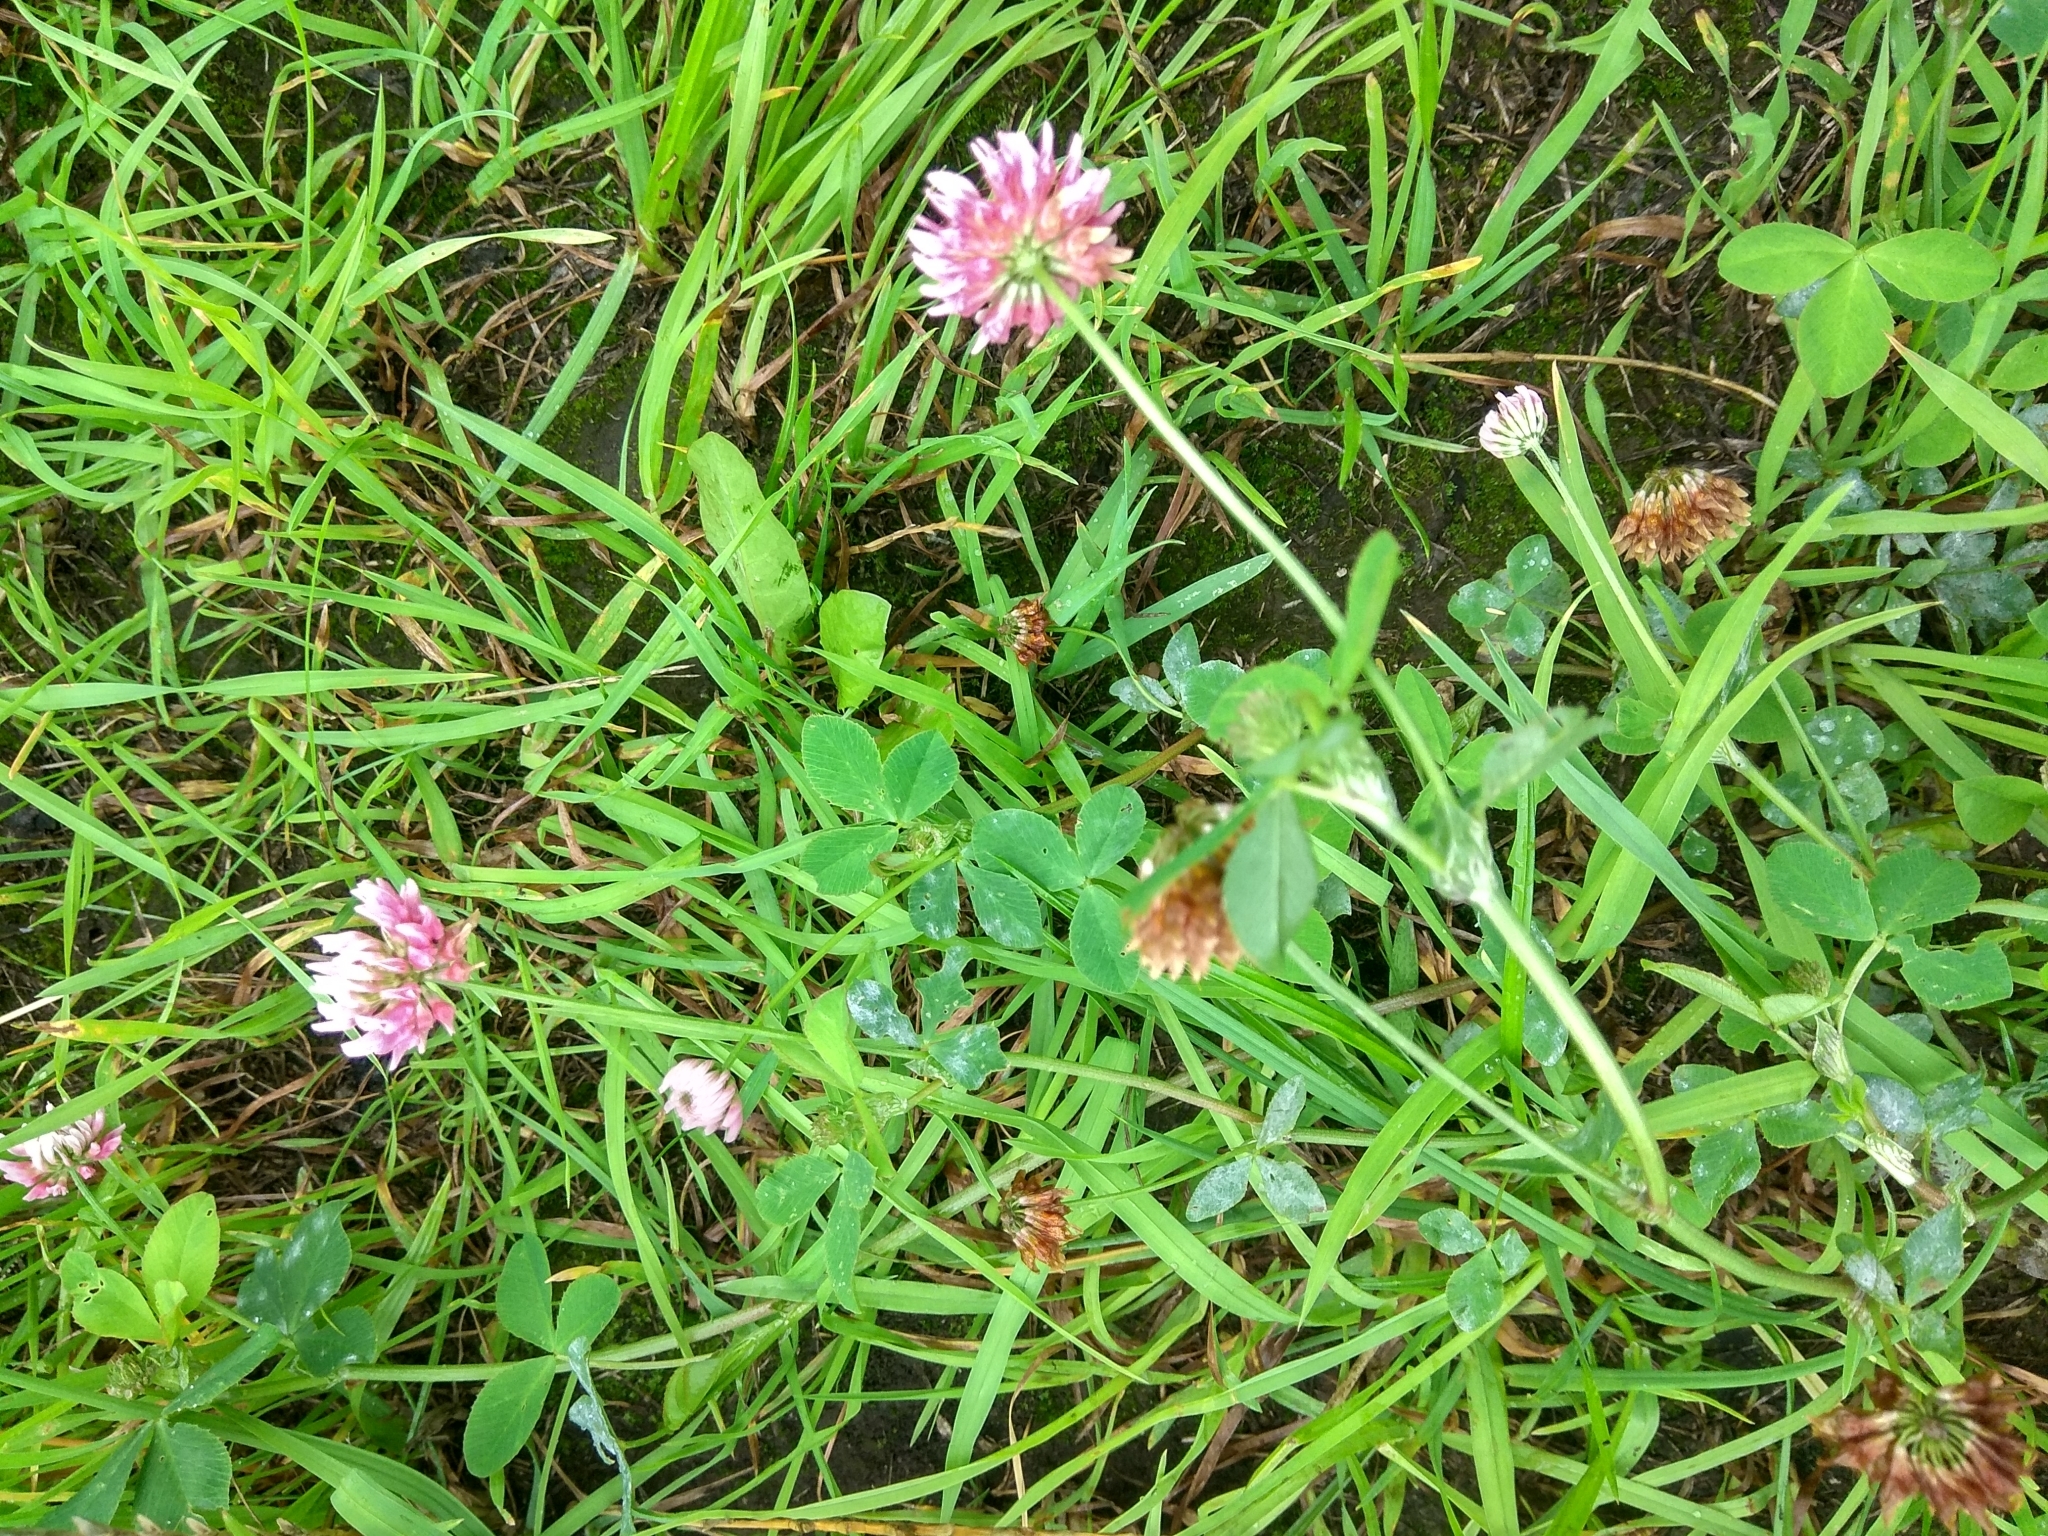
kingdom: Plantae
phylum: Tracheophyta
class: Magnoliopsida
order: Fabales
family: Fabaceae
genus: Trifolium
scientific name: Trifolium hybridum
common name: Alsike clover
